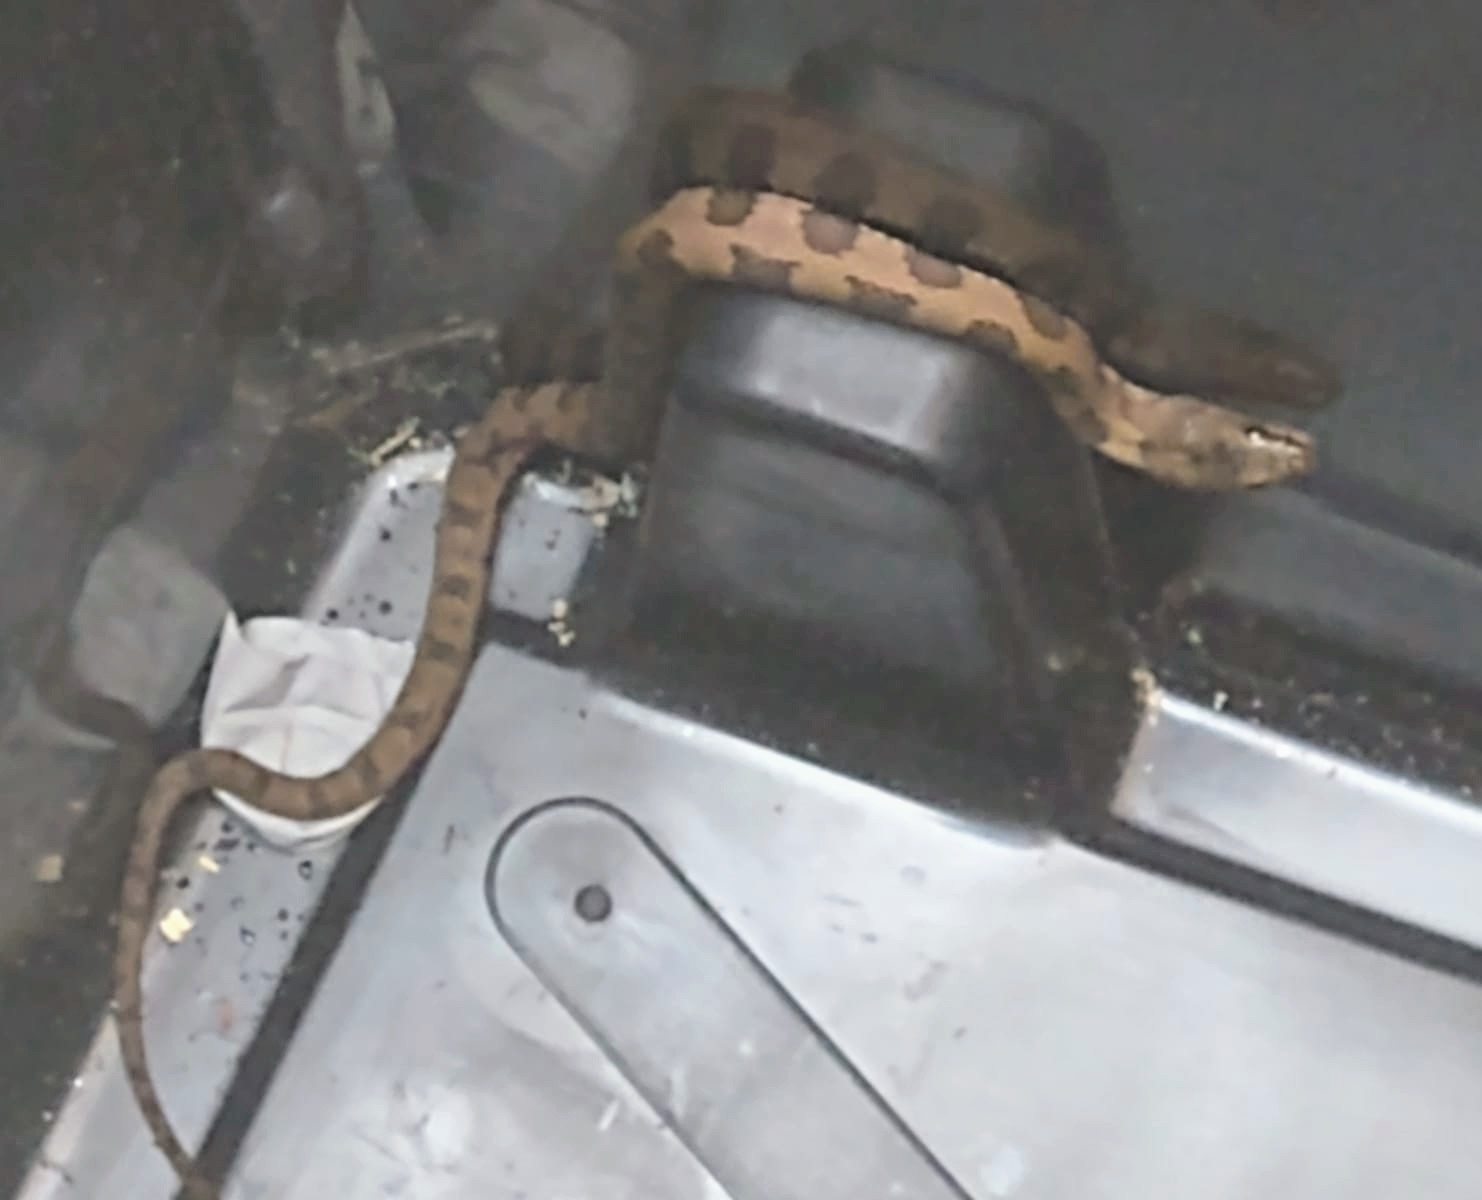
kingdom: Animalia
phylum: Chordata
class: Squamata
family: Colubridae
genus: Nerodia
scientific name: Nerodia taxispilota
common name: Brown water snake
